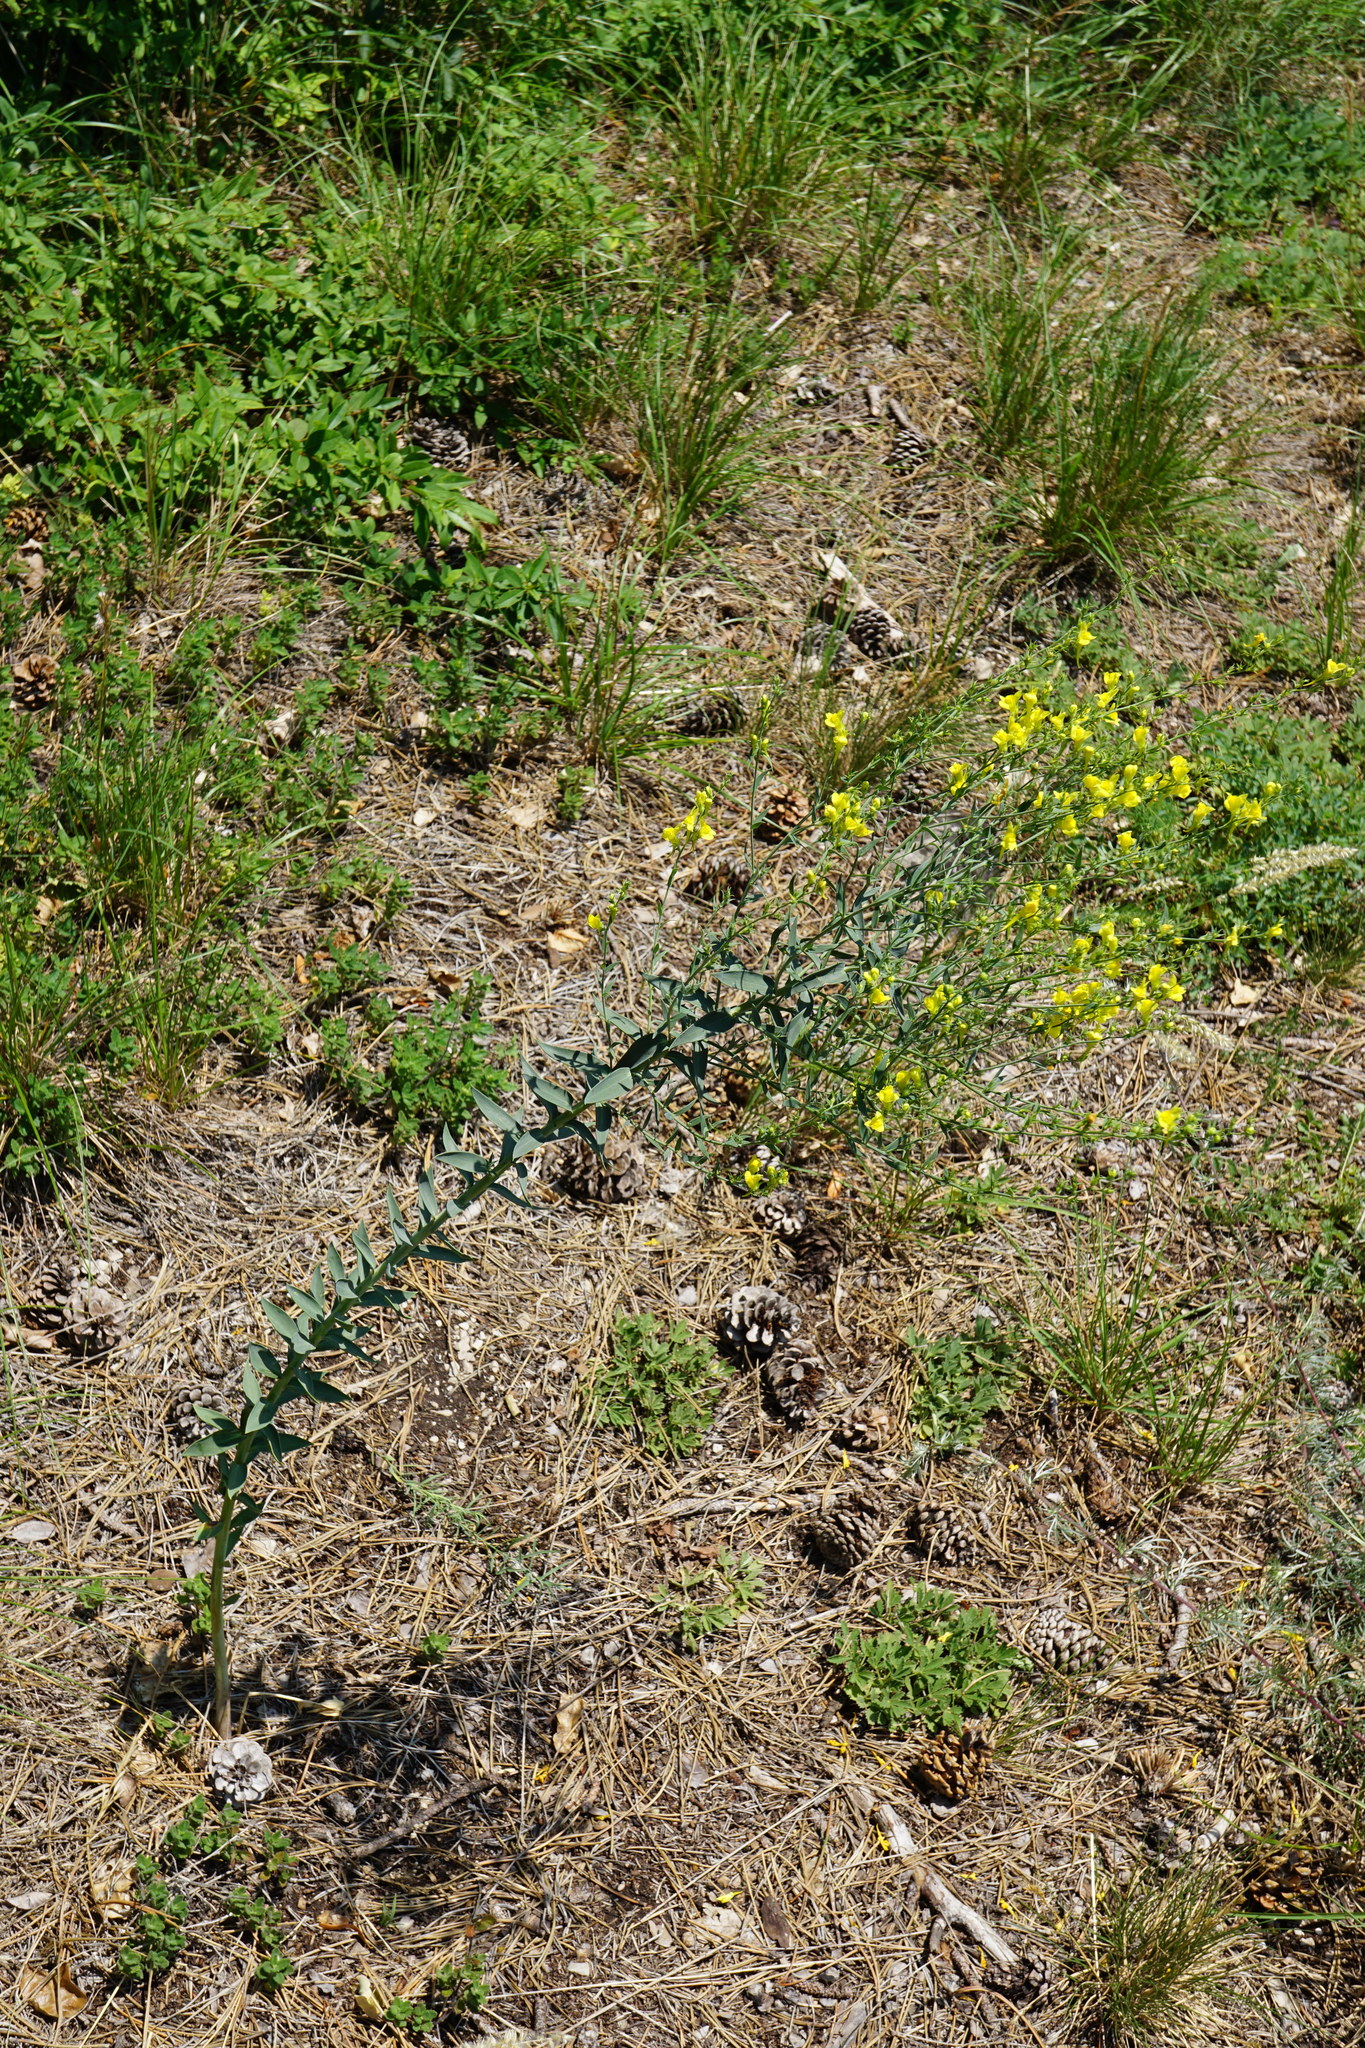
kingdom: Plantae
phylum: Tracheophyta
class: Magnoliopsida
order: Lamiales
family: Plantaginaceae
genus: Linaria
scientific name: Linaria genistifolia
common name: Broomleaf toadflax
